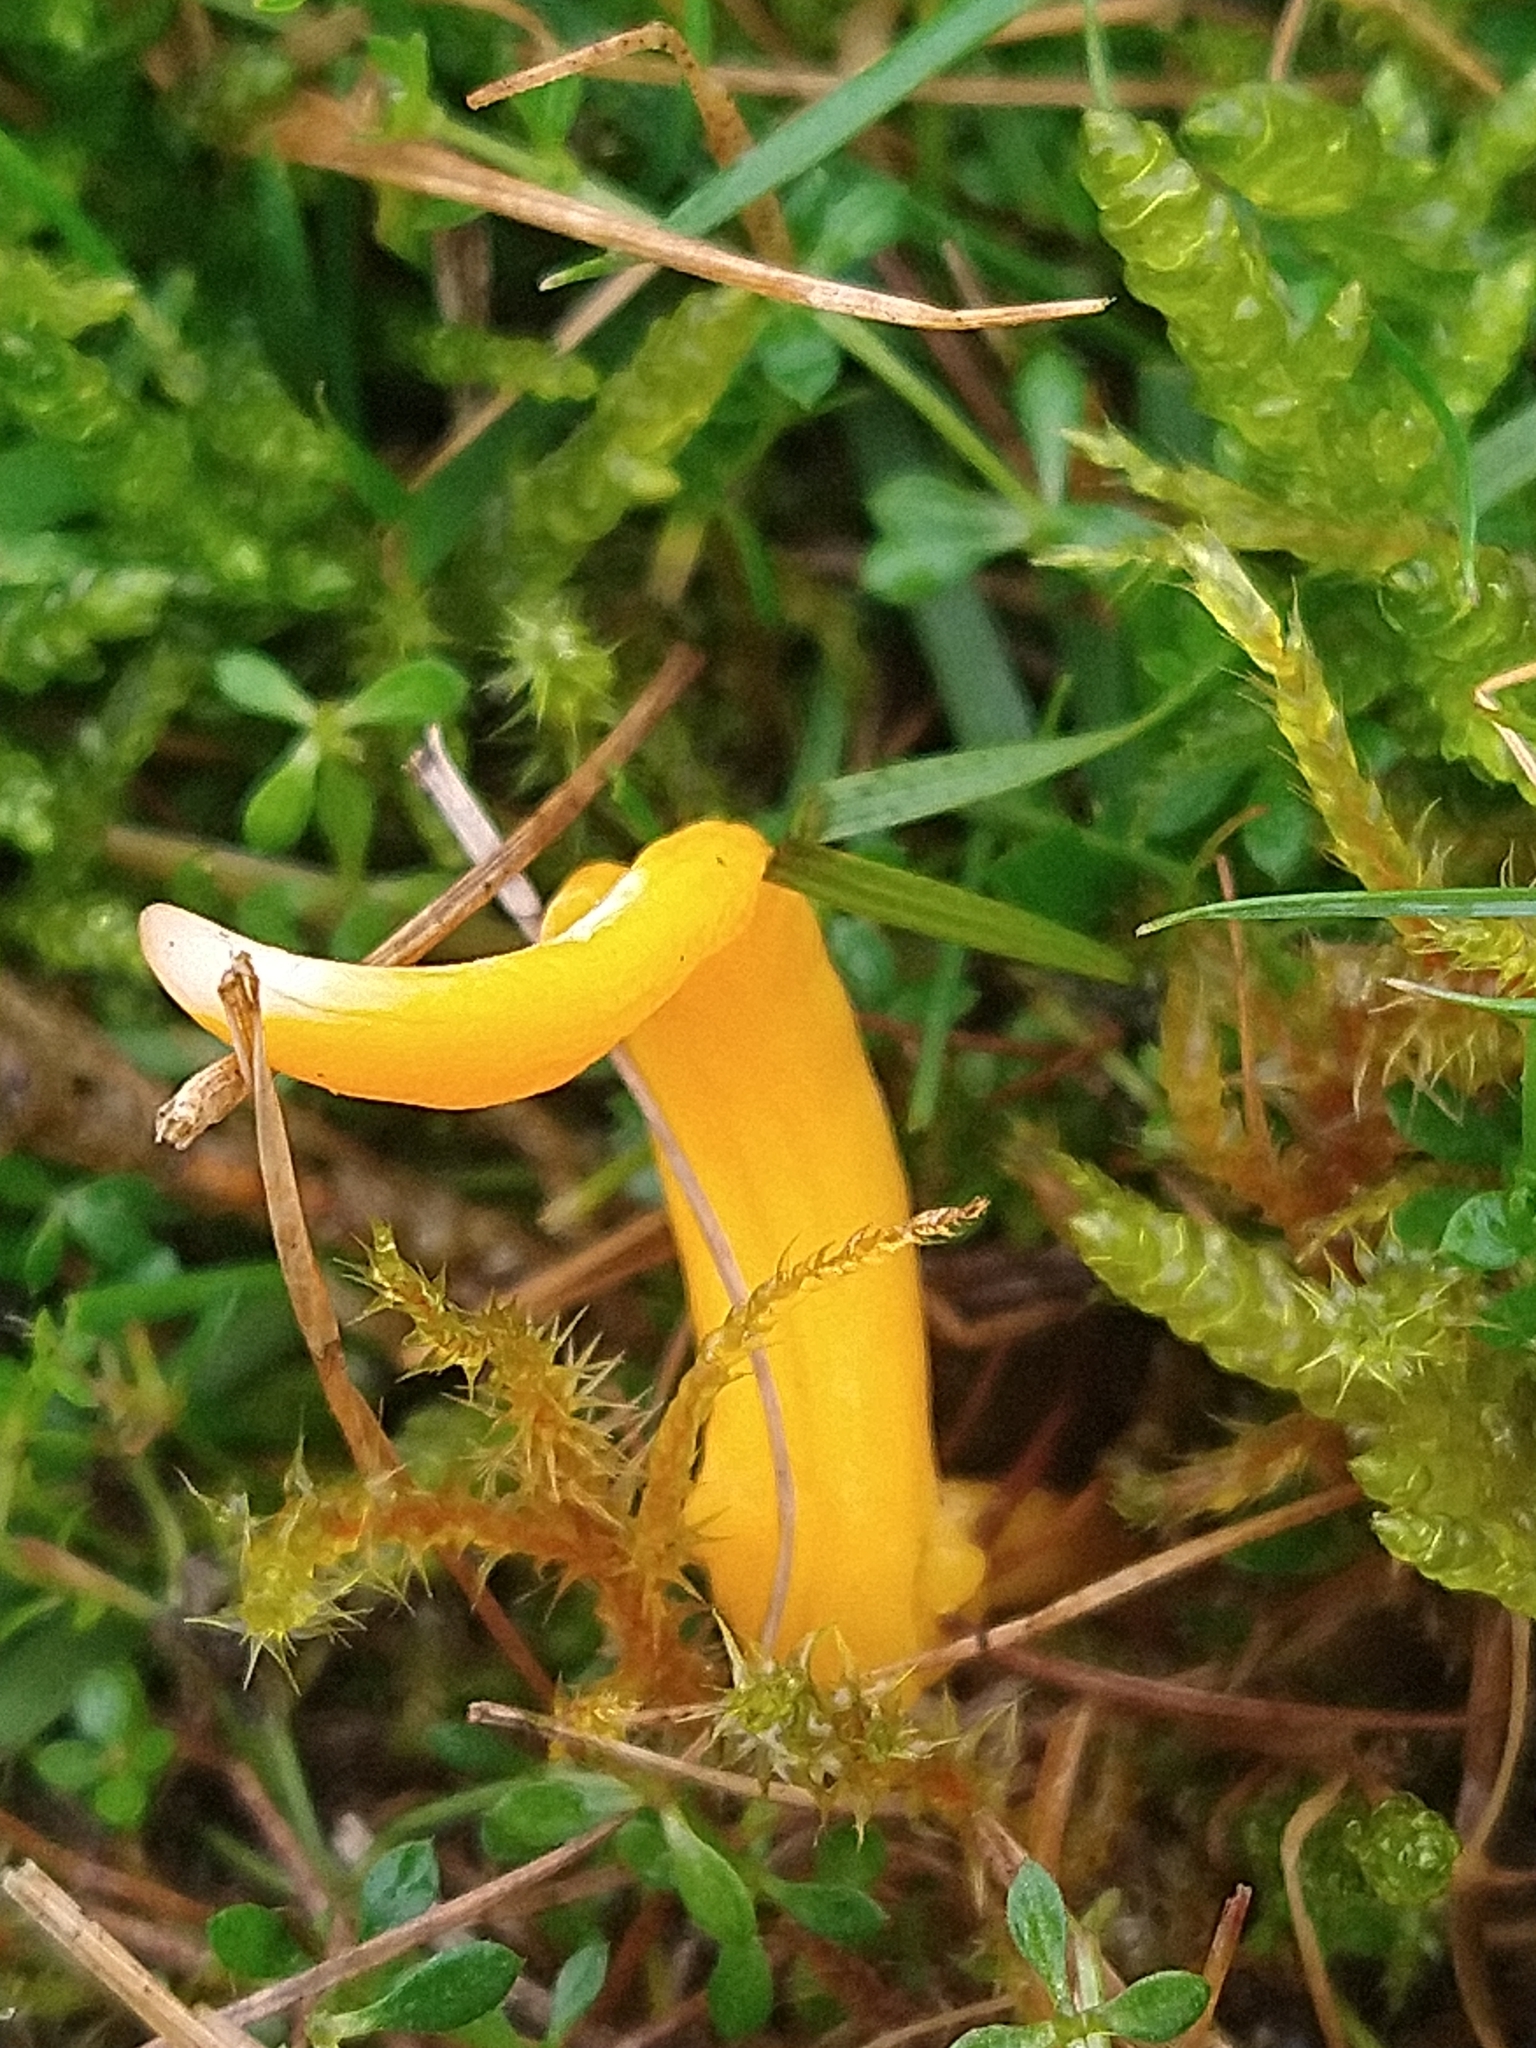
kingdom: Fungi
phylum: Basidiomycota
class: Agaricomycetes
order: Agaricales
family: Clavariaceae
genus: Clavulinopsis
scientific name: Clavulinopsis luteoalba
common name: Apricot club
